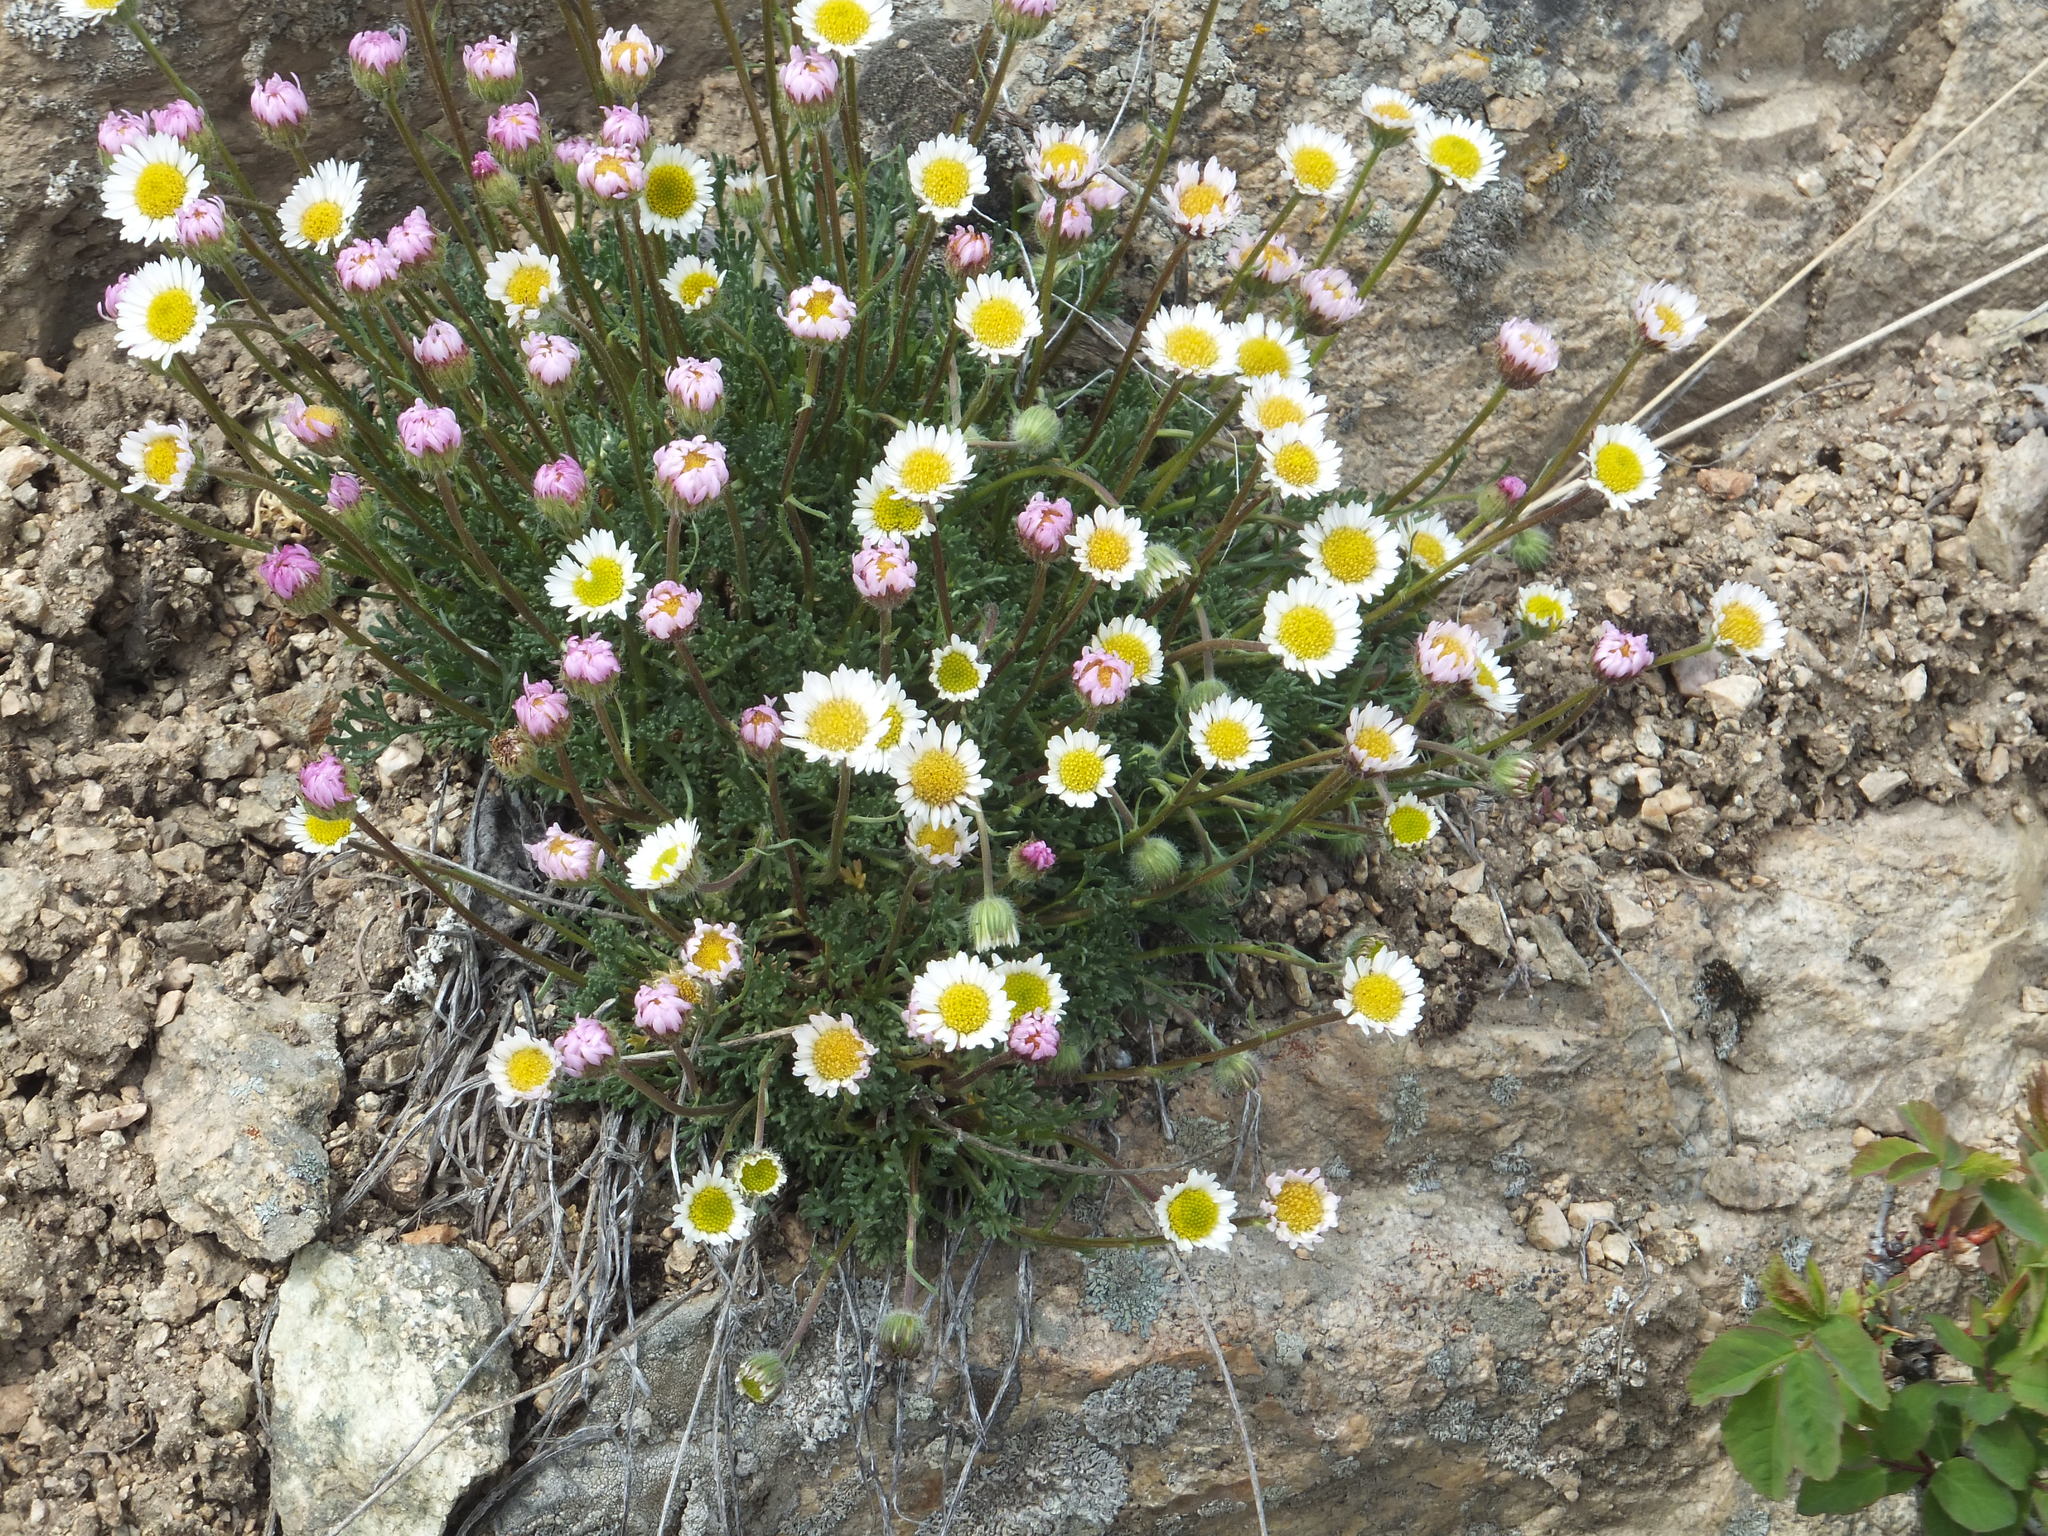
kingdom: Plantae
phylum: Tracheophyta
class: Magnoliopsida
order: Asterales
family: Asteraceae
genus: Erigeron
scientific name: Erigeron compositus
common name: Dwarf mountain fleabane
